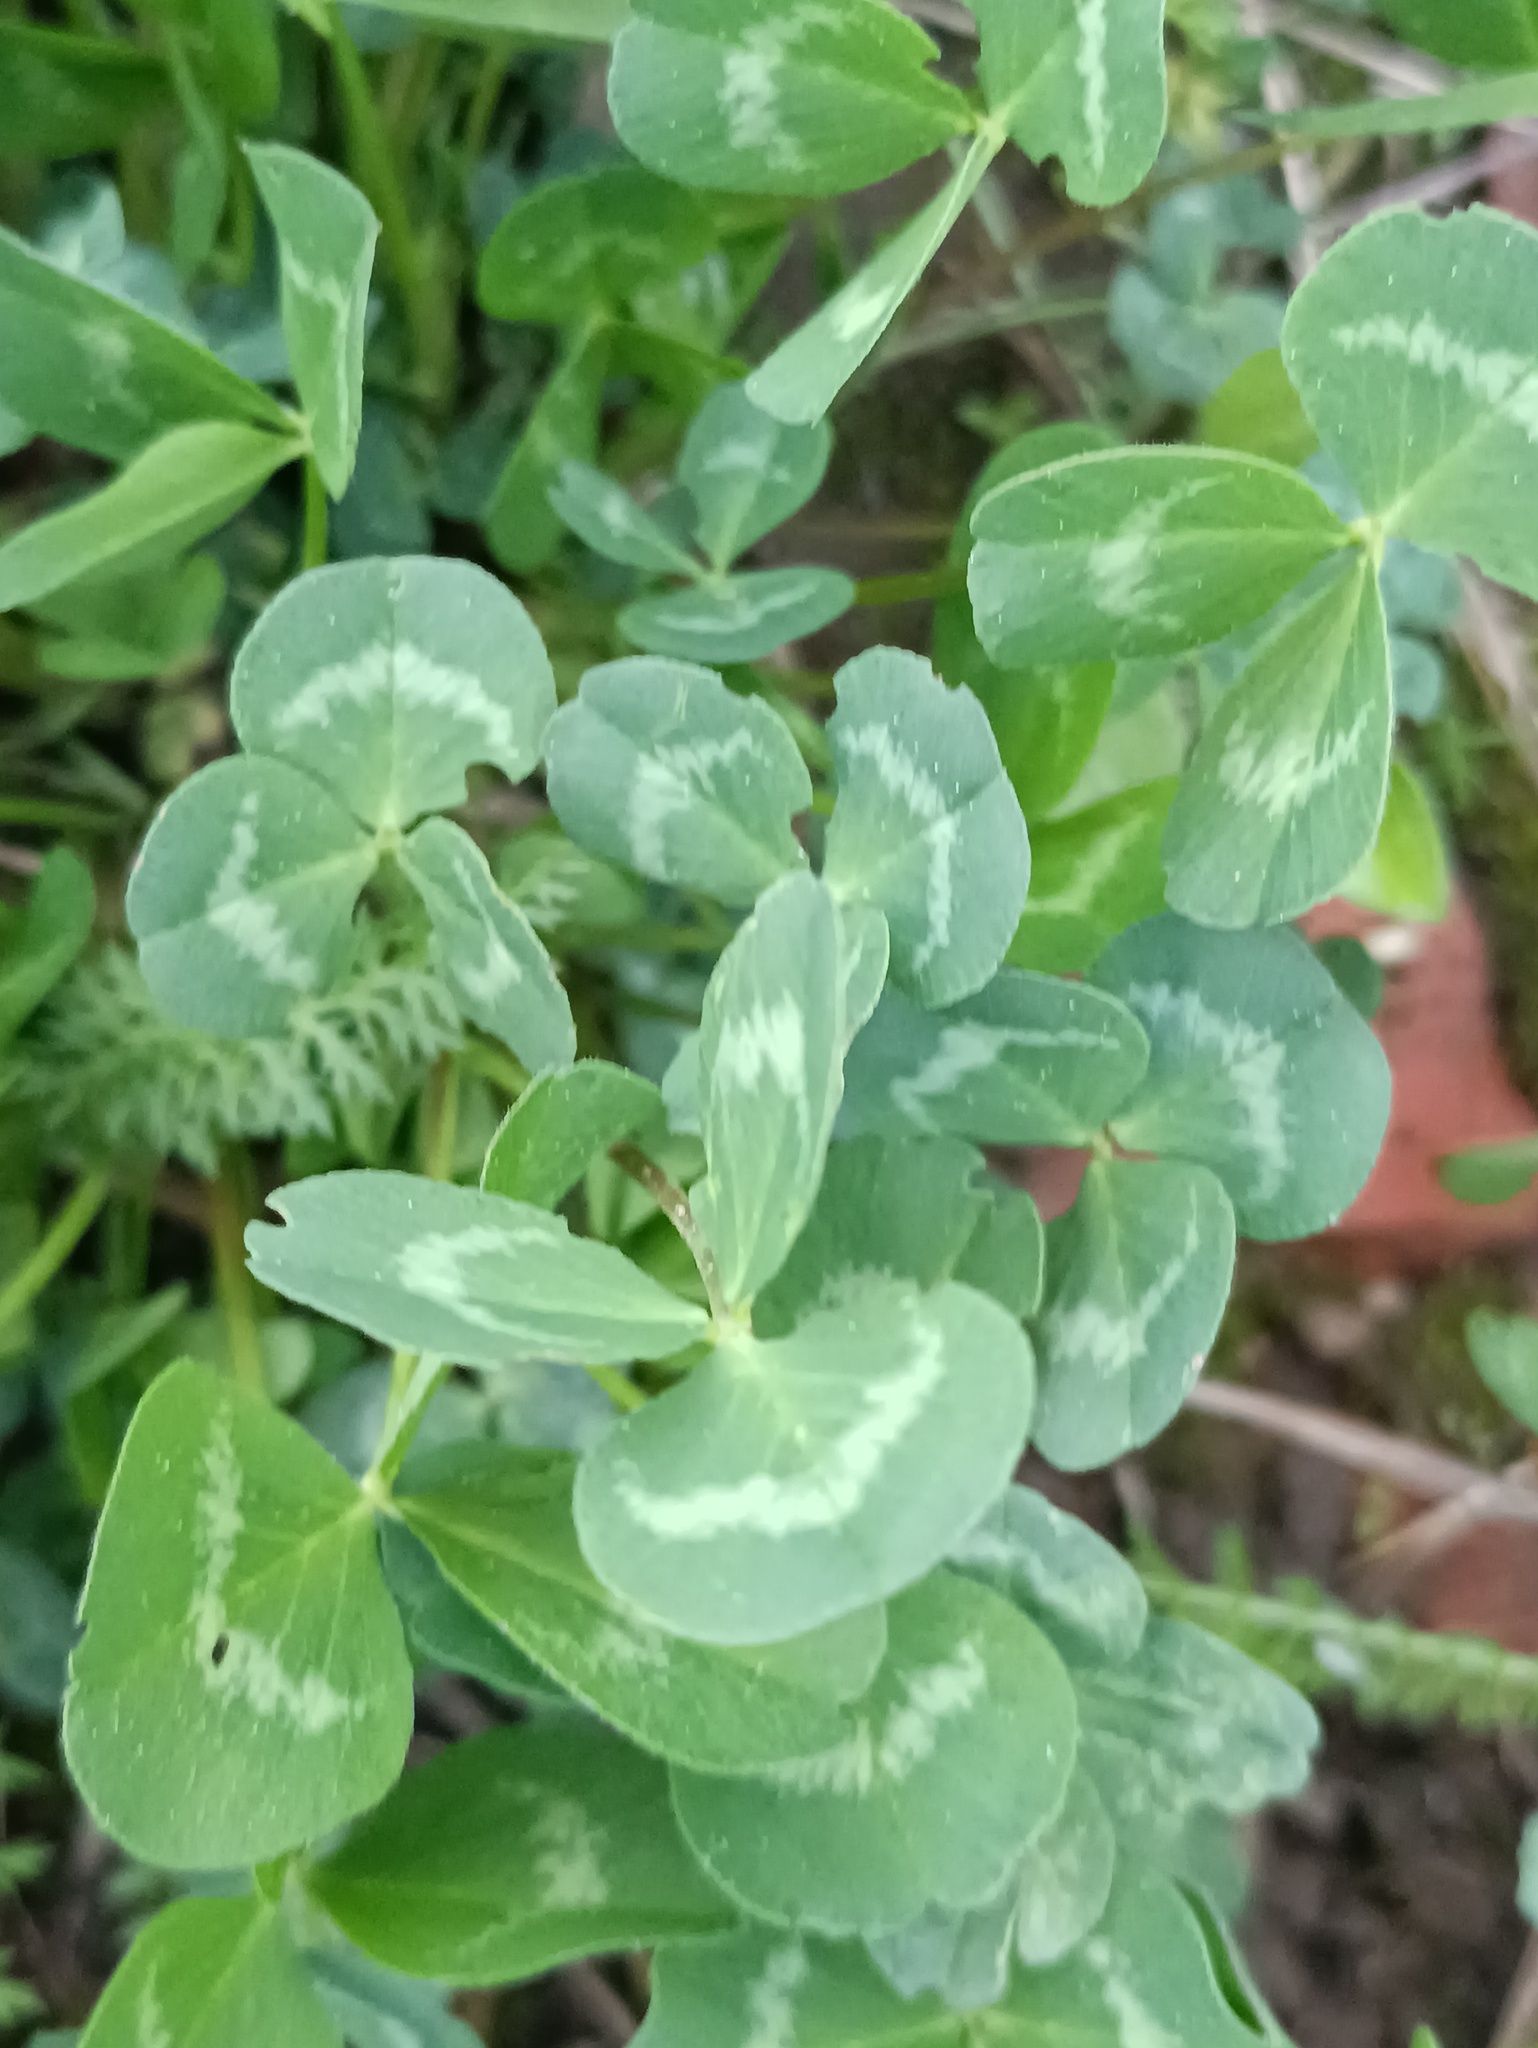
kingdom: Plantae
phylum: Tracheophyta
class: Magnoliopsida
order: Fabales
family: Fabaceae
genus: Trifolium
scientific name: Trifolium repens
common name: White clover
